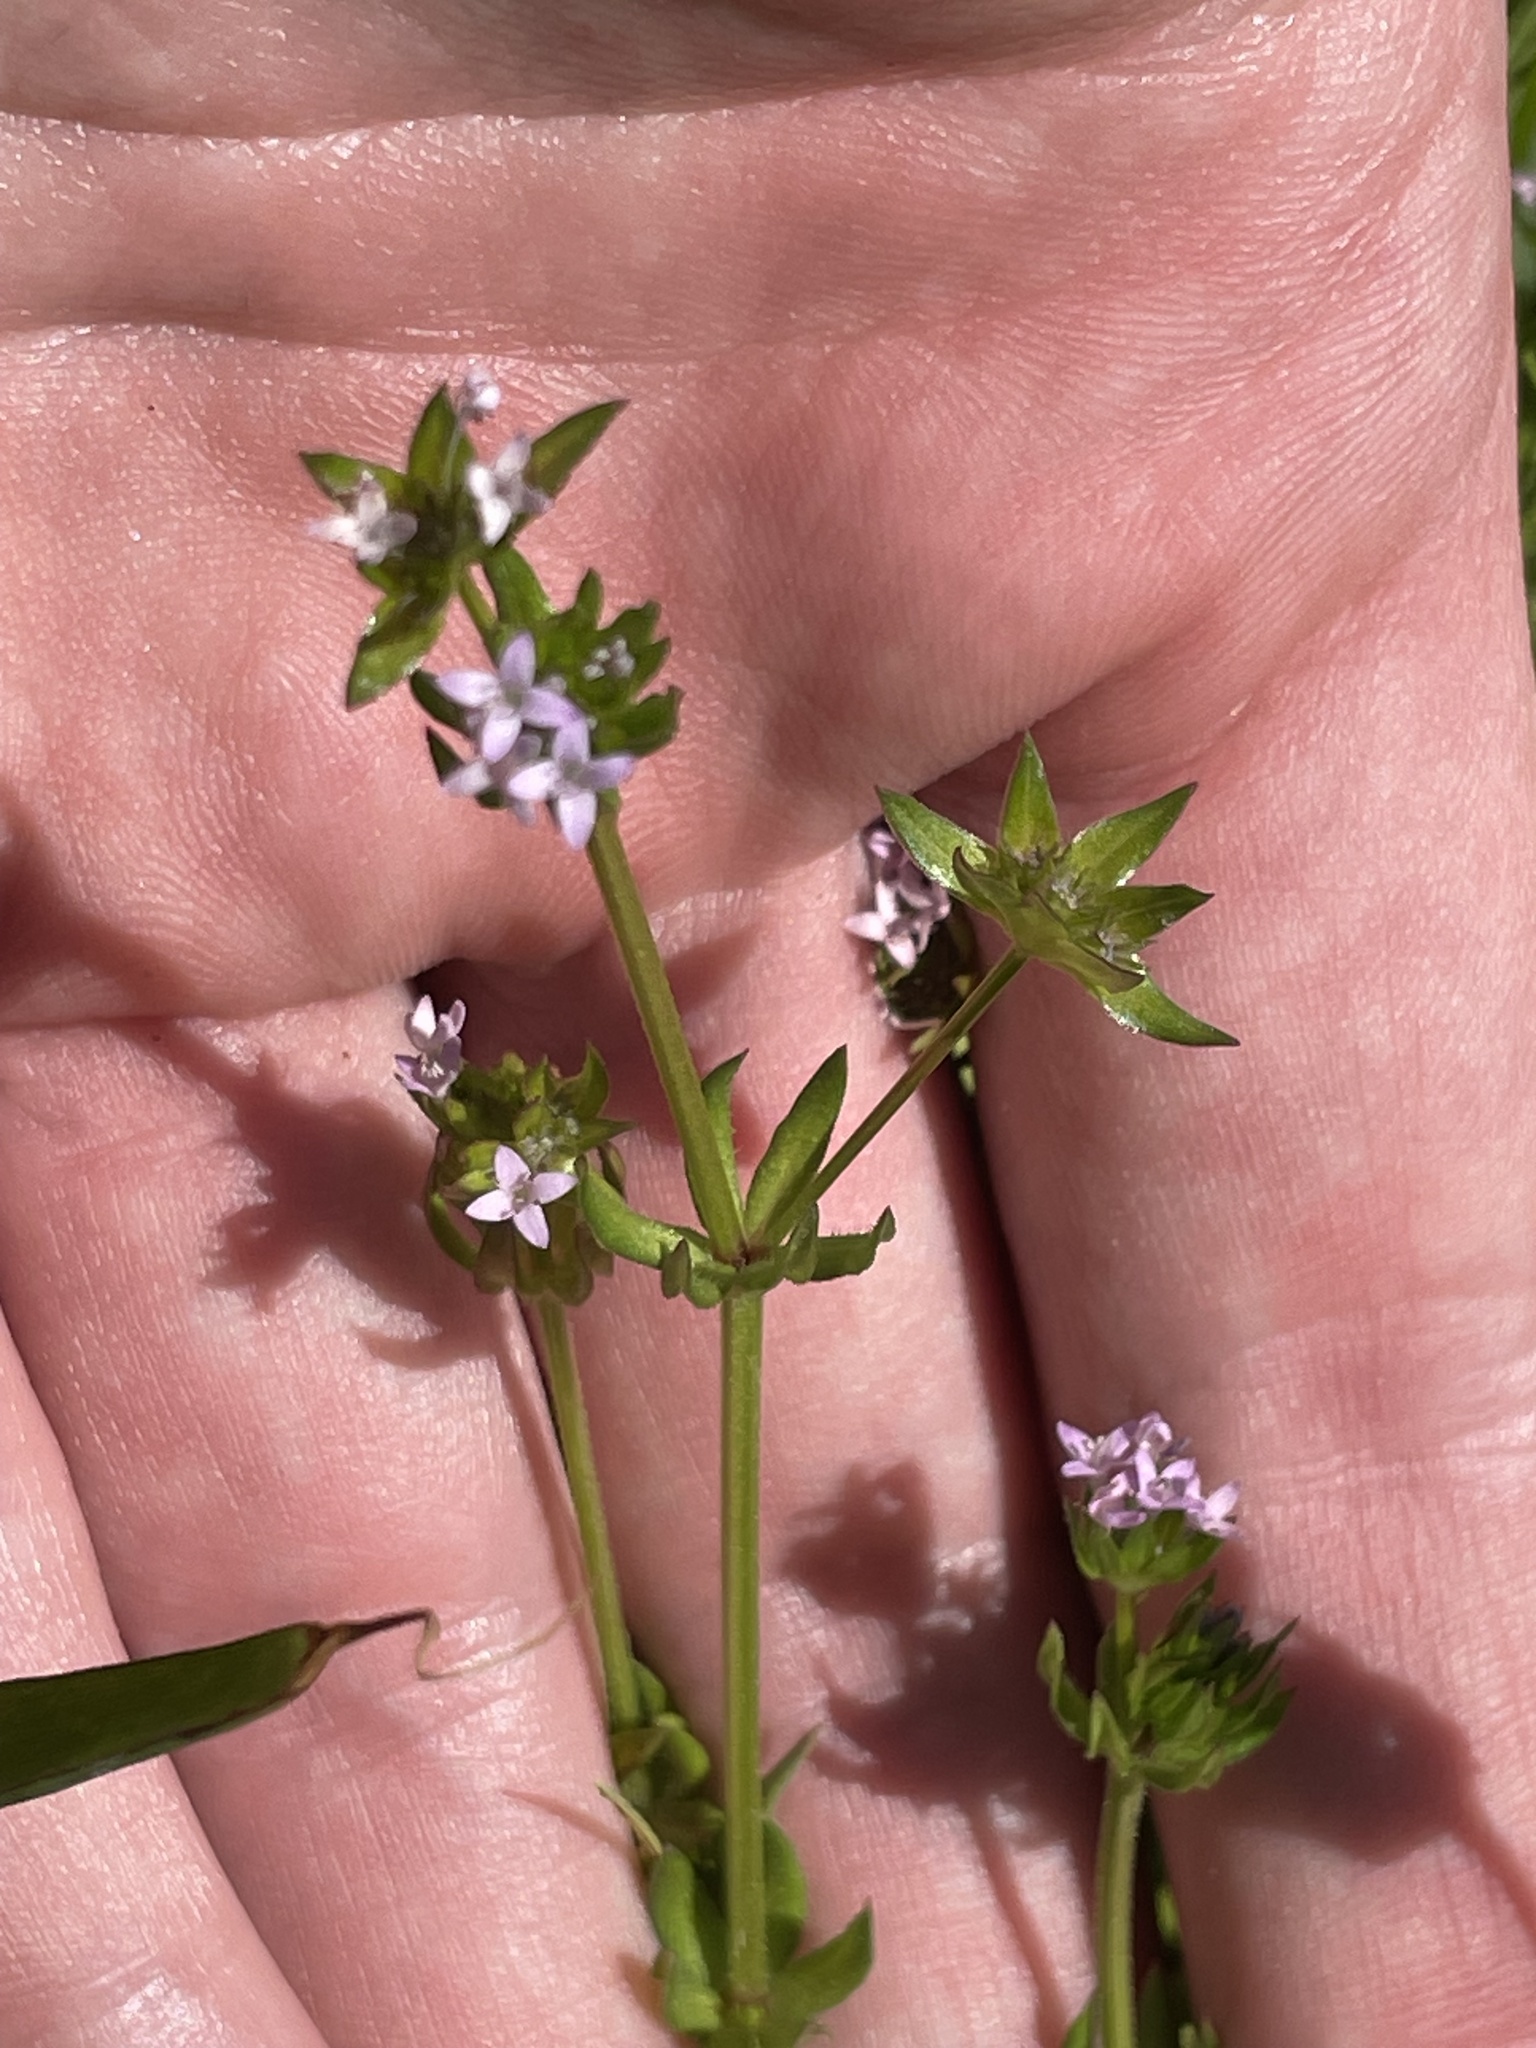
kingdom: Plantae
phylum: Tracheophyta
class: Magnoliopsida
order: Gentianales
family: Rubiaceae
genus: Sherardia
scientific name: Sherardia arvensis
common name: Field madder
